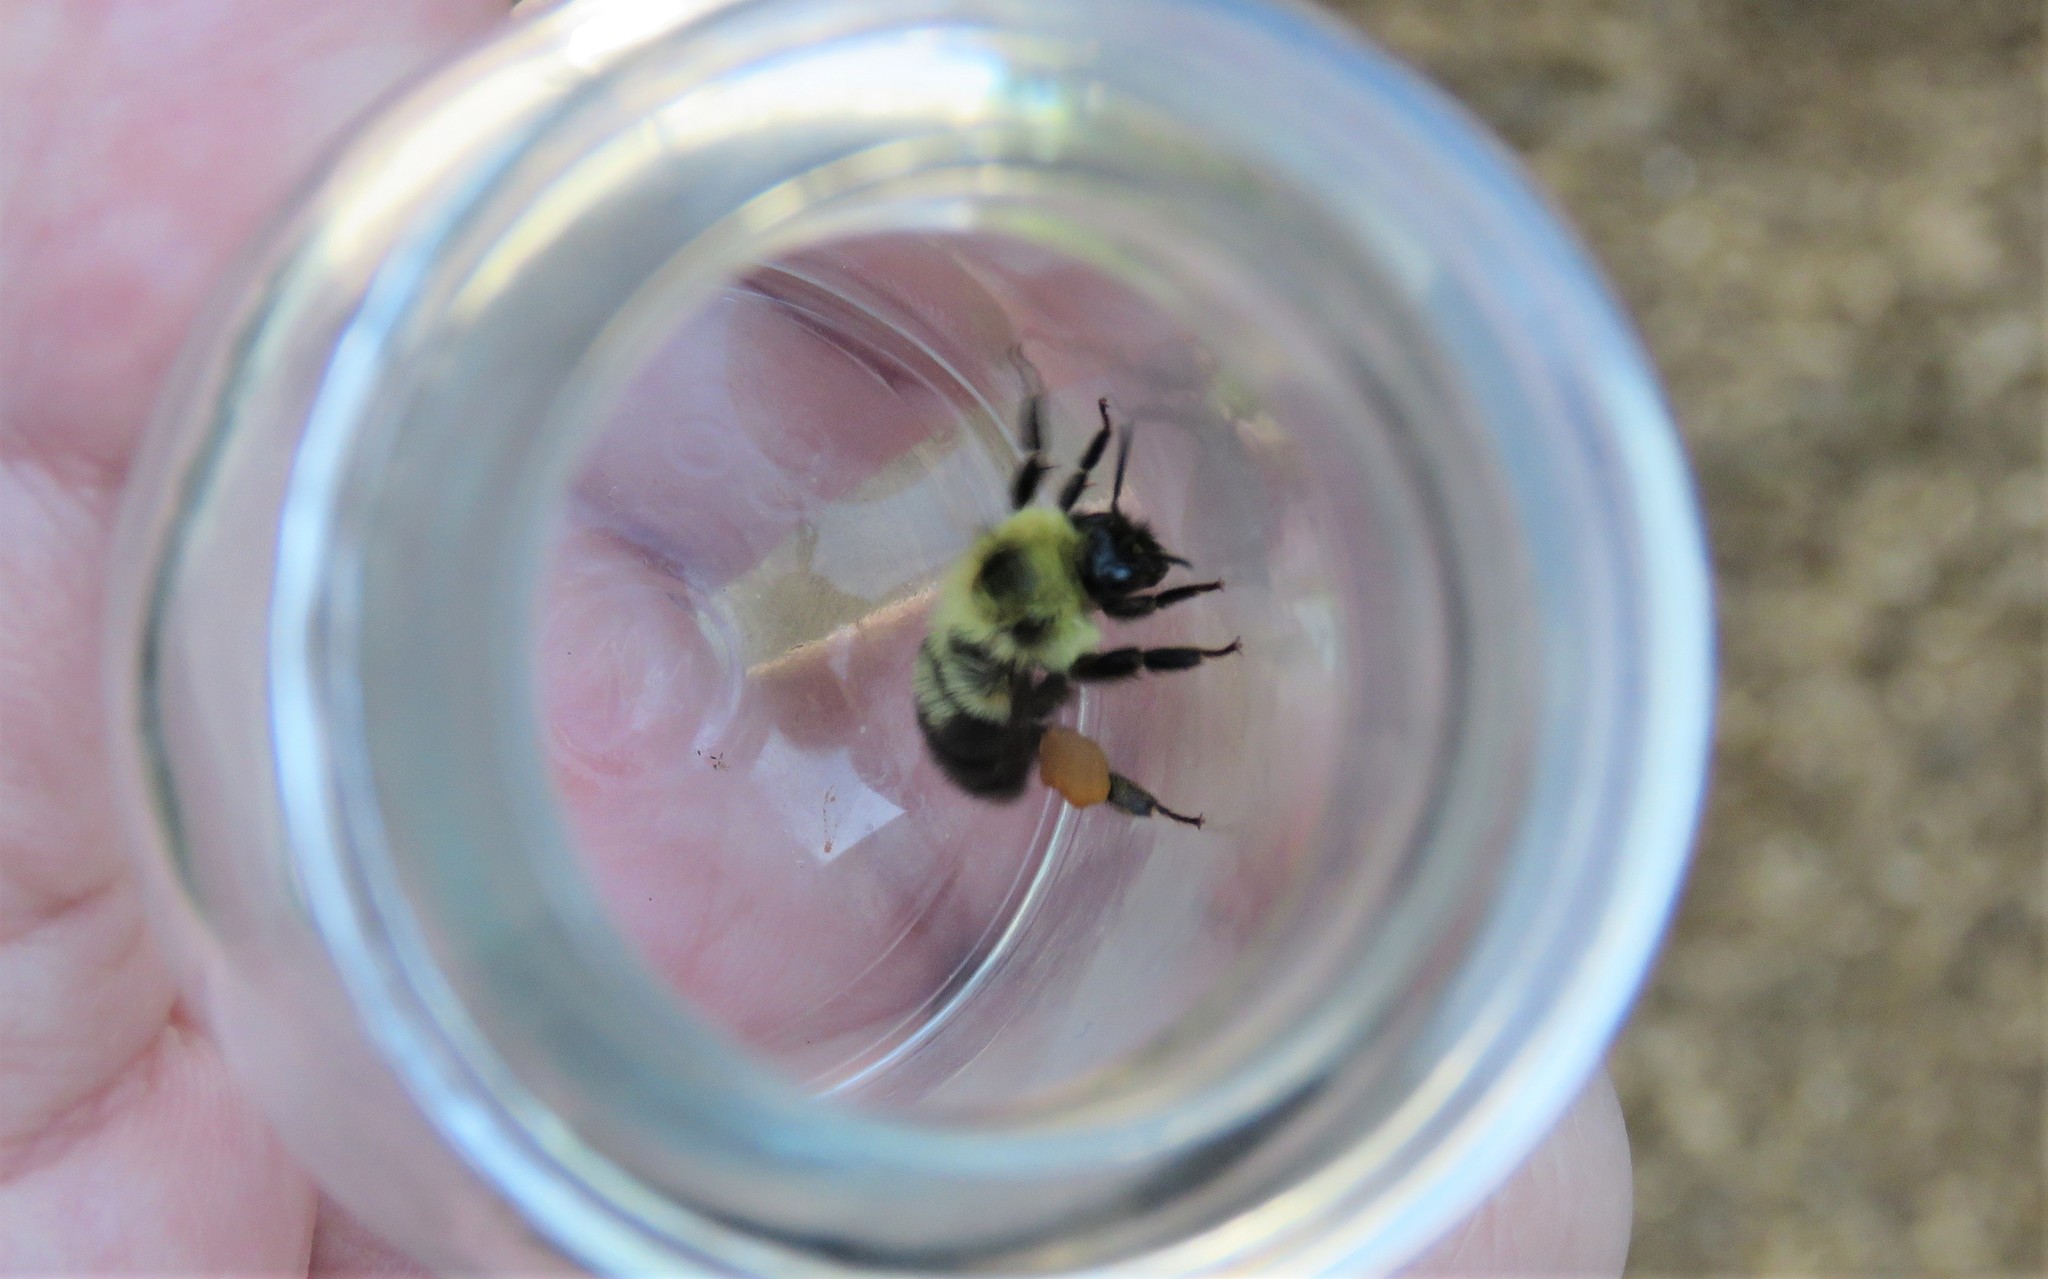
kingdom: Animalia
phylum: Arthropoda
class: Insecta
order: Hymenoptera
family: Apidae
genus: Bombus
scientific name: Bombus bimaculatus
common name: Two-spotted bumble bee
